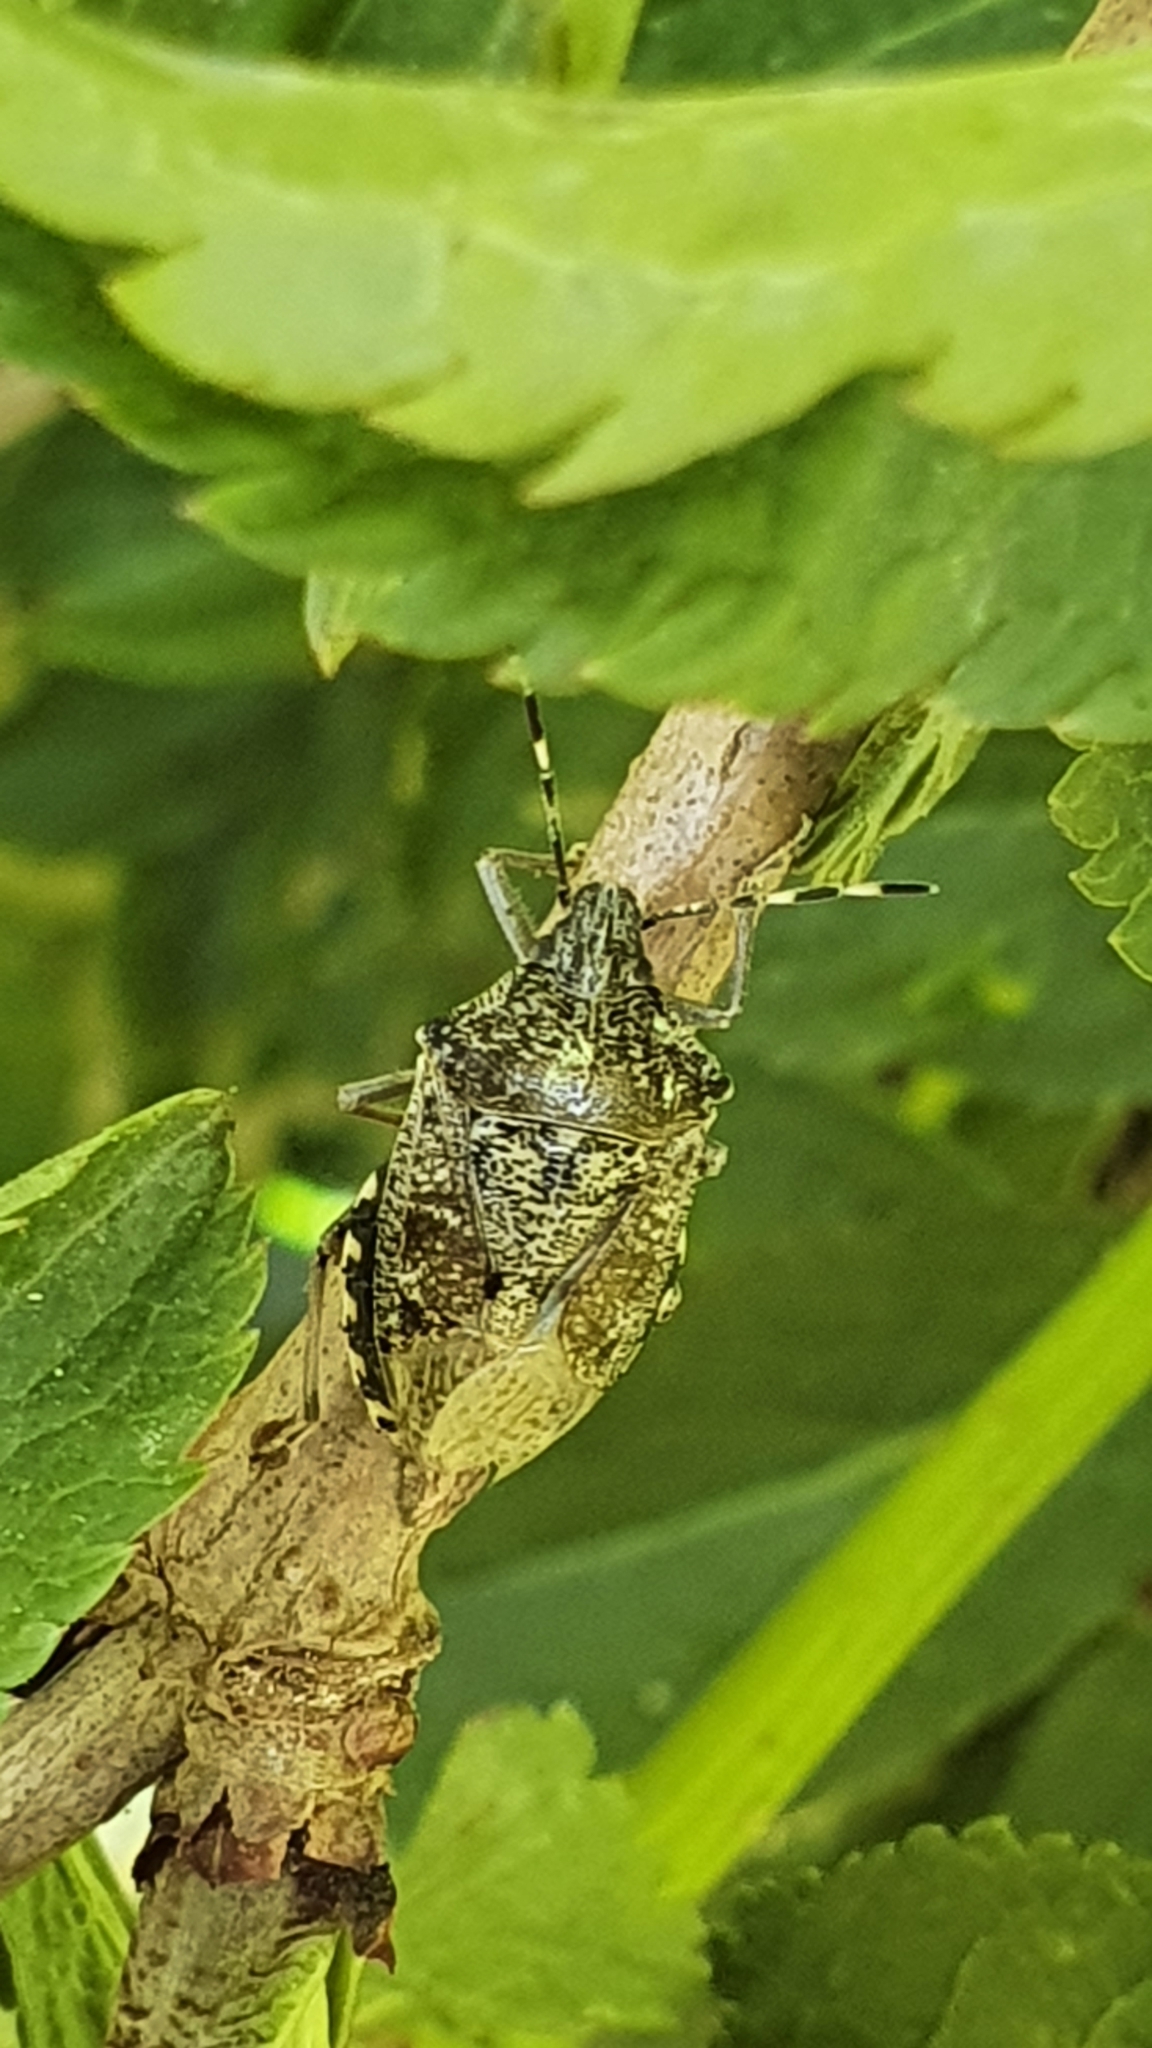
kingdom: Animalia
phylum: Arthropoda
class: Insecta
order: Hemiptera
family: Pentatomidae
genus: Rhaphigaster
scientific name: Rhaphigaster nebulosa
